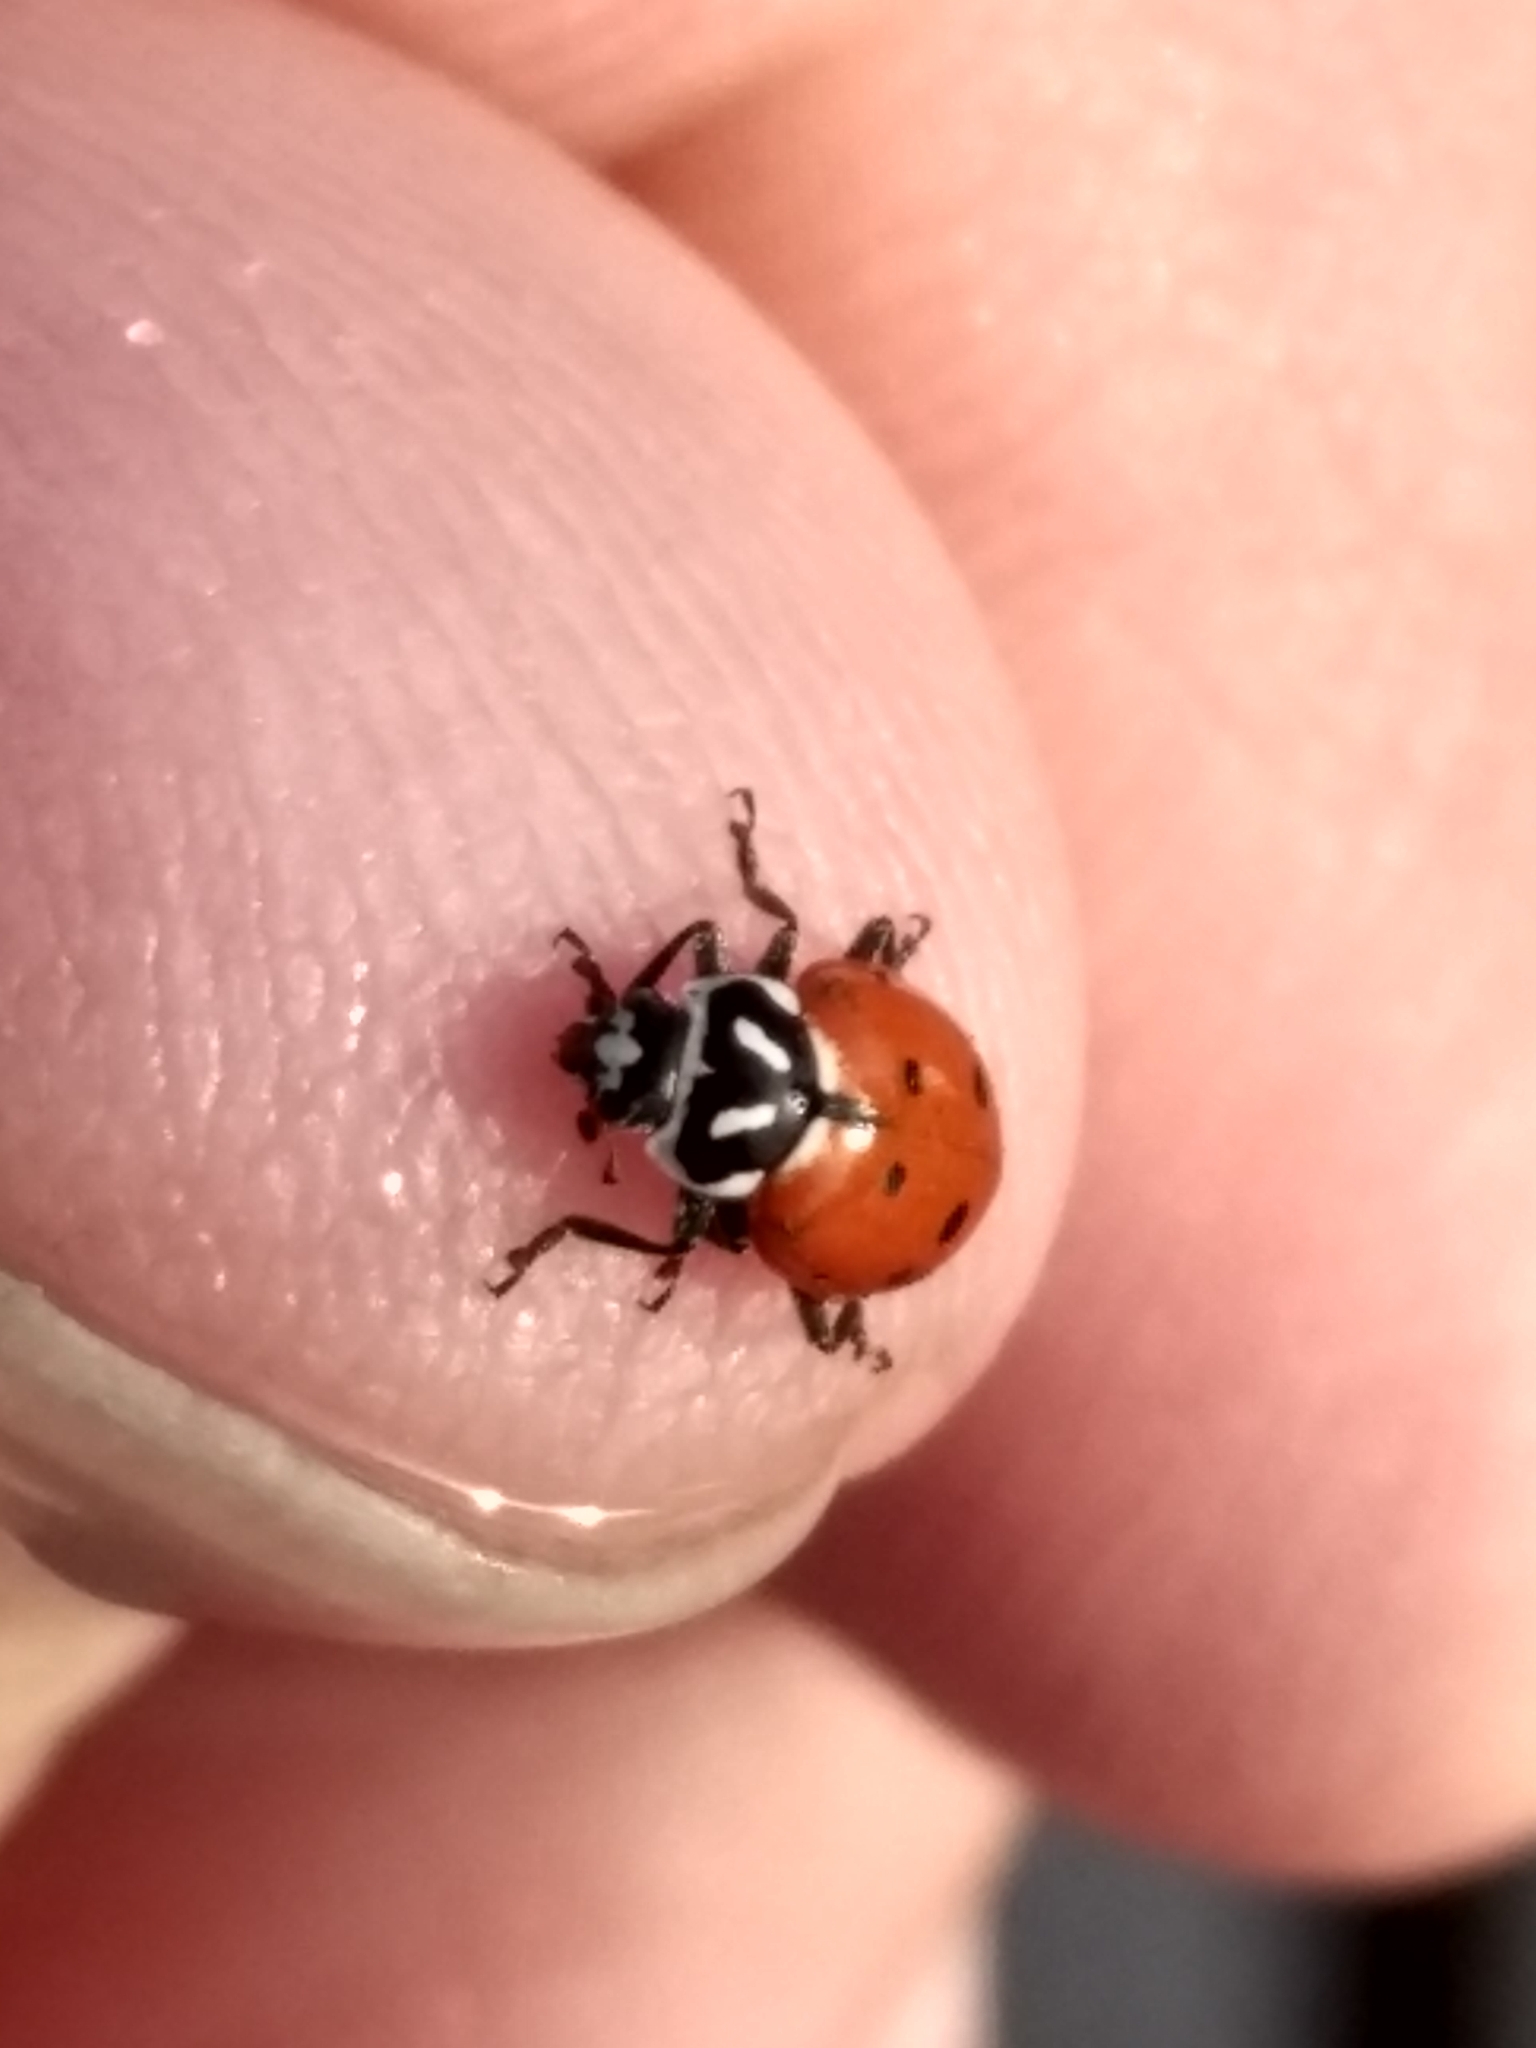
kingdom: Animalia
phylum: Arthropoda
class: Insecta
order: Coleoptera
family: Coccinellidae
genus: Hippodamia
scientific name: Hippodamia convergens
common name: Convergent lady beetle
